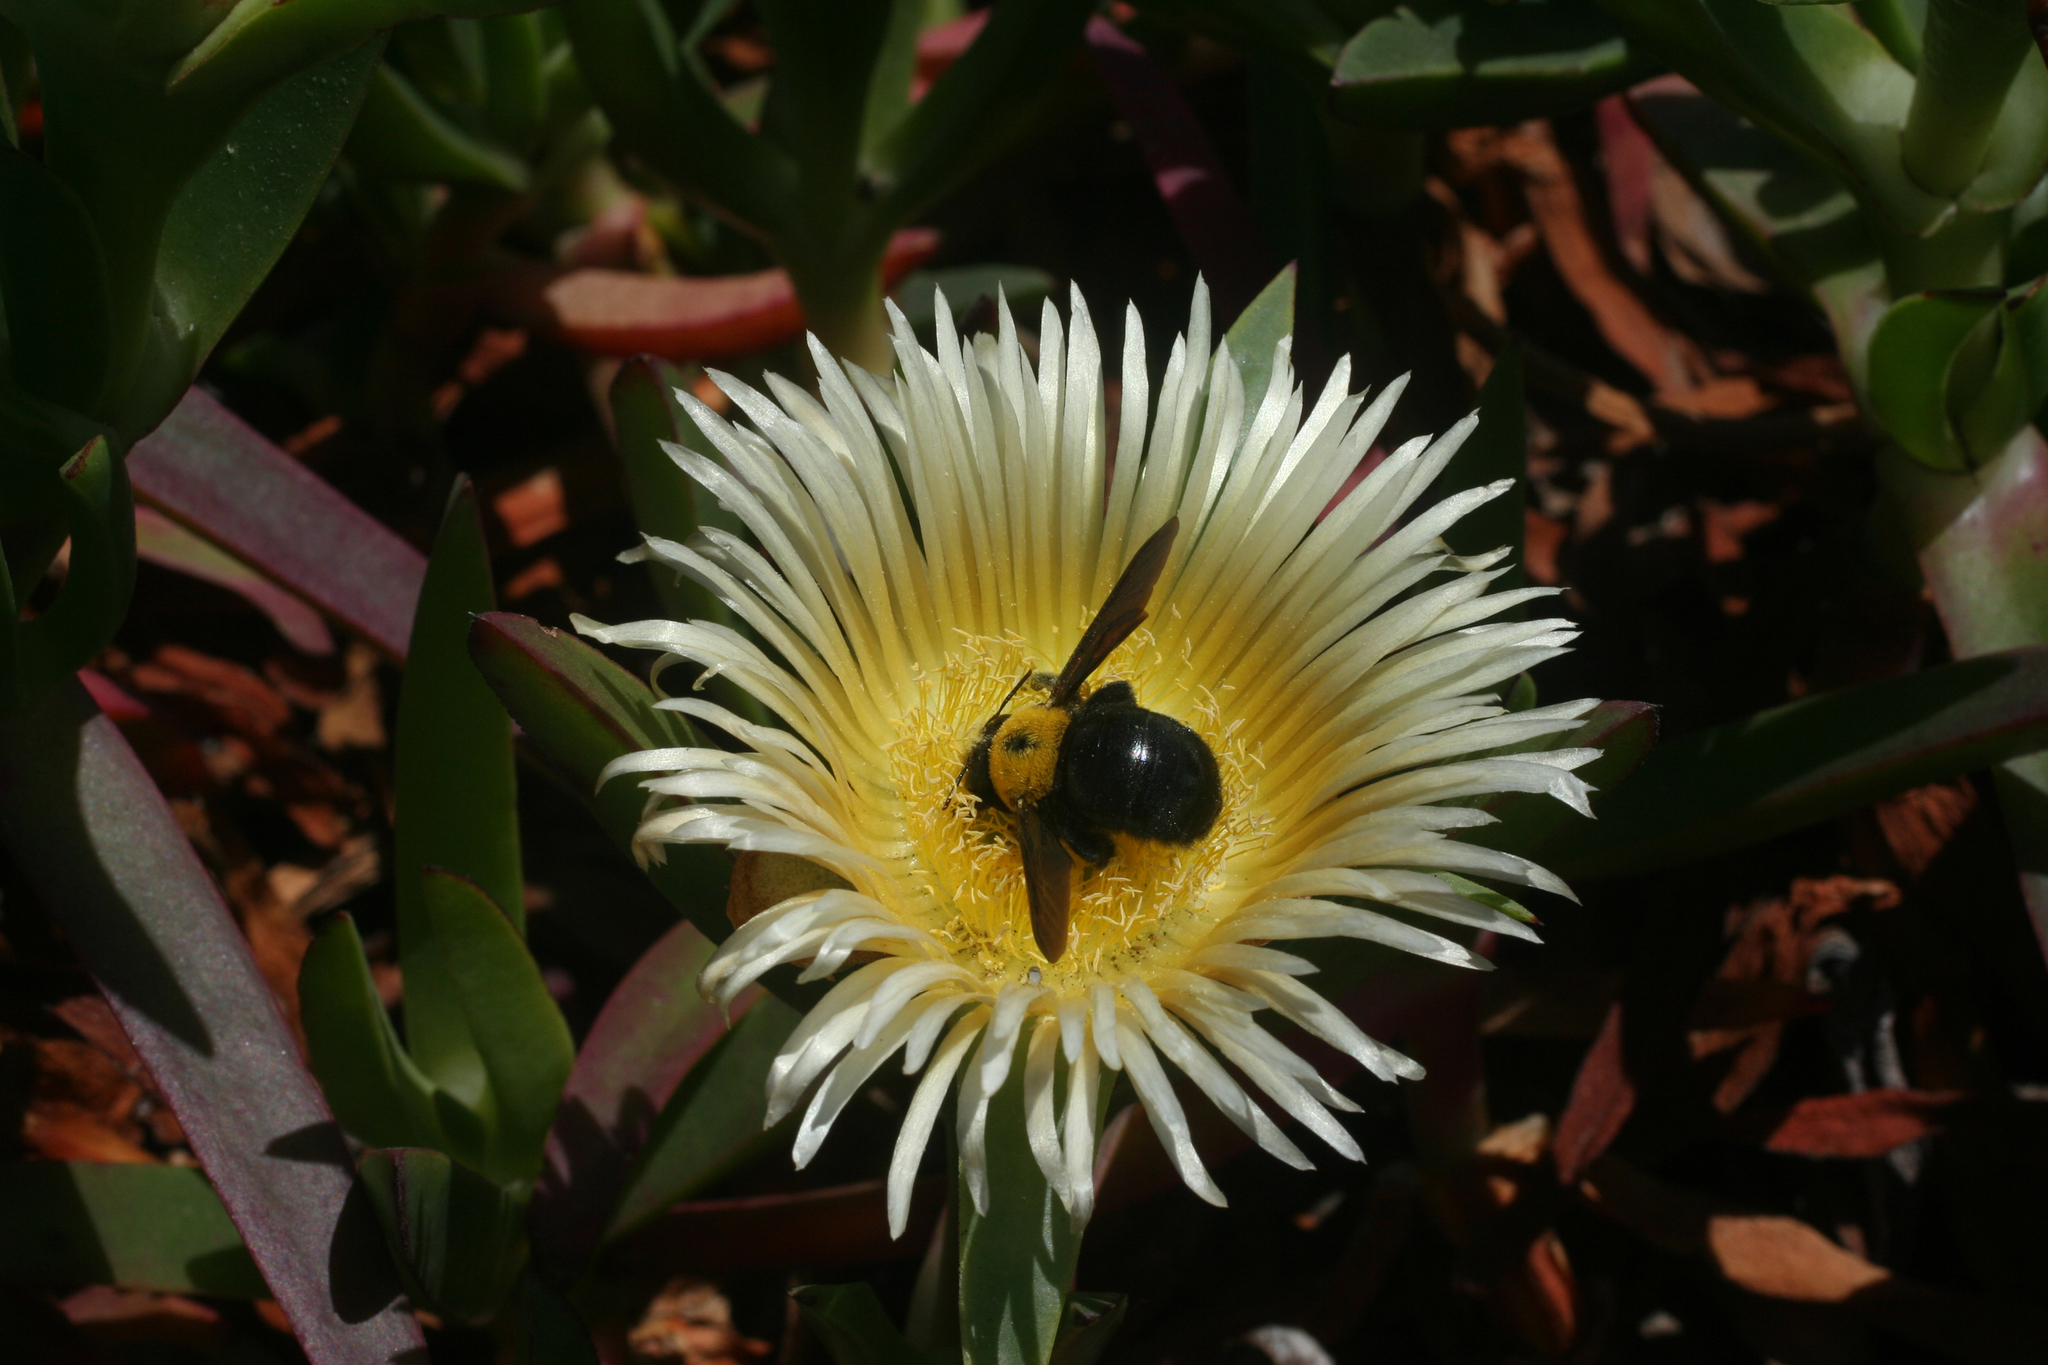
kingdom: Animalia
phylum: Arthropoda
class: Insecta
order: Hymenoptera
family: Apidae
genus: Xylocopa
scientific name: Xylocopa pubescens
